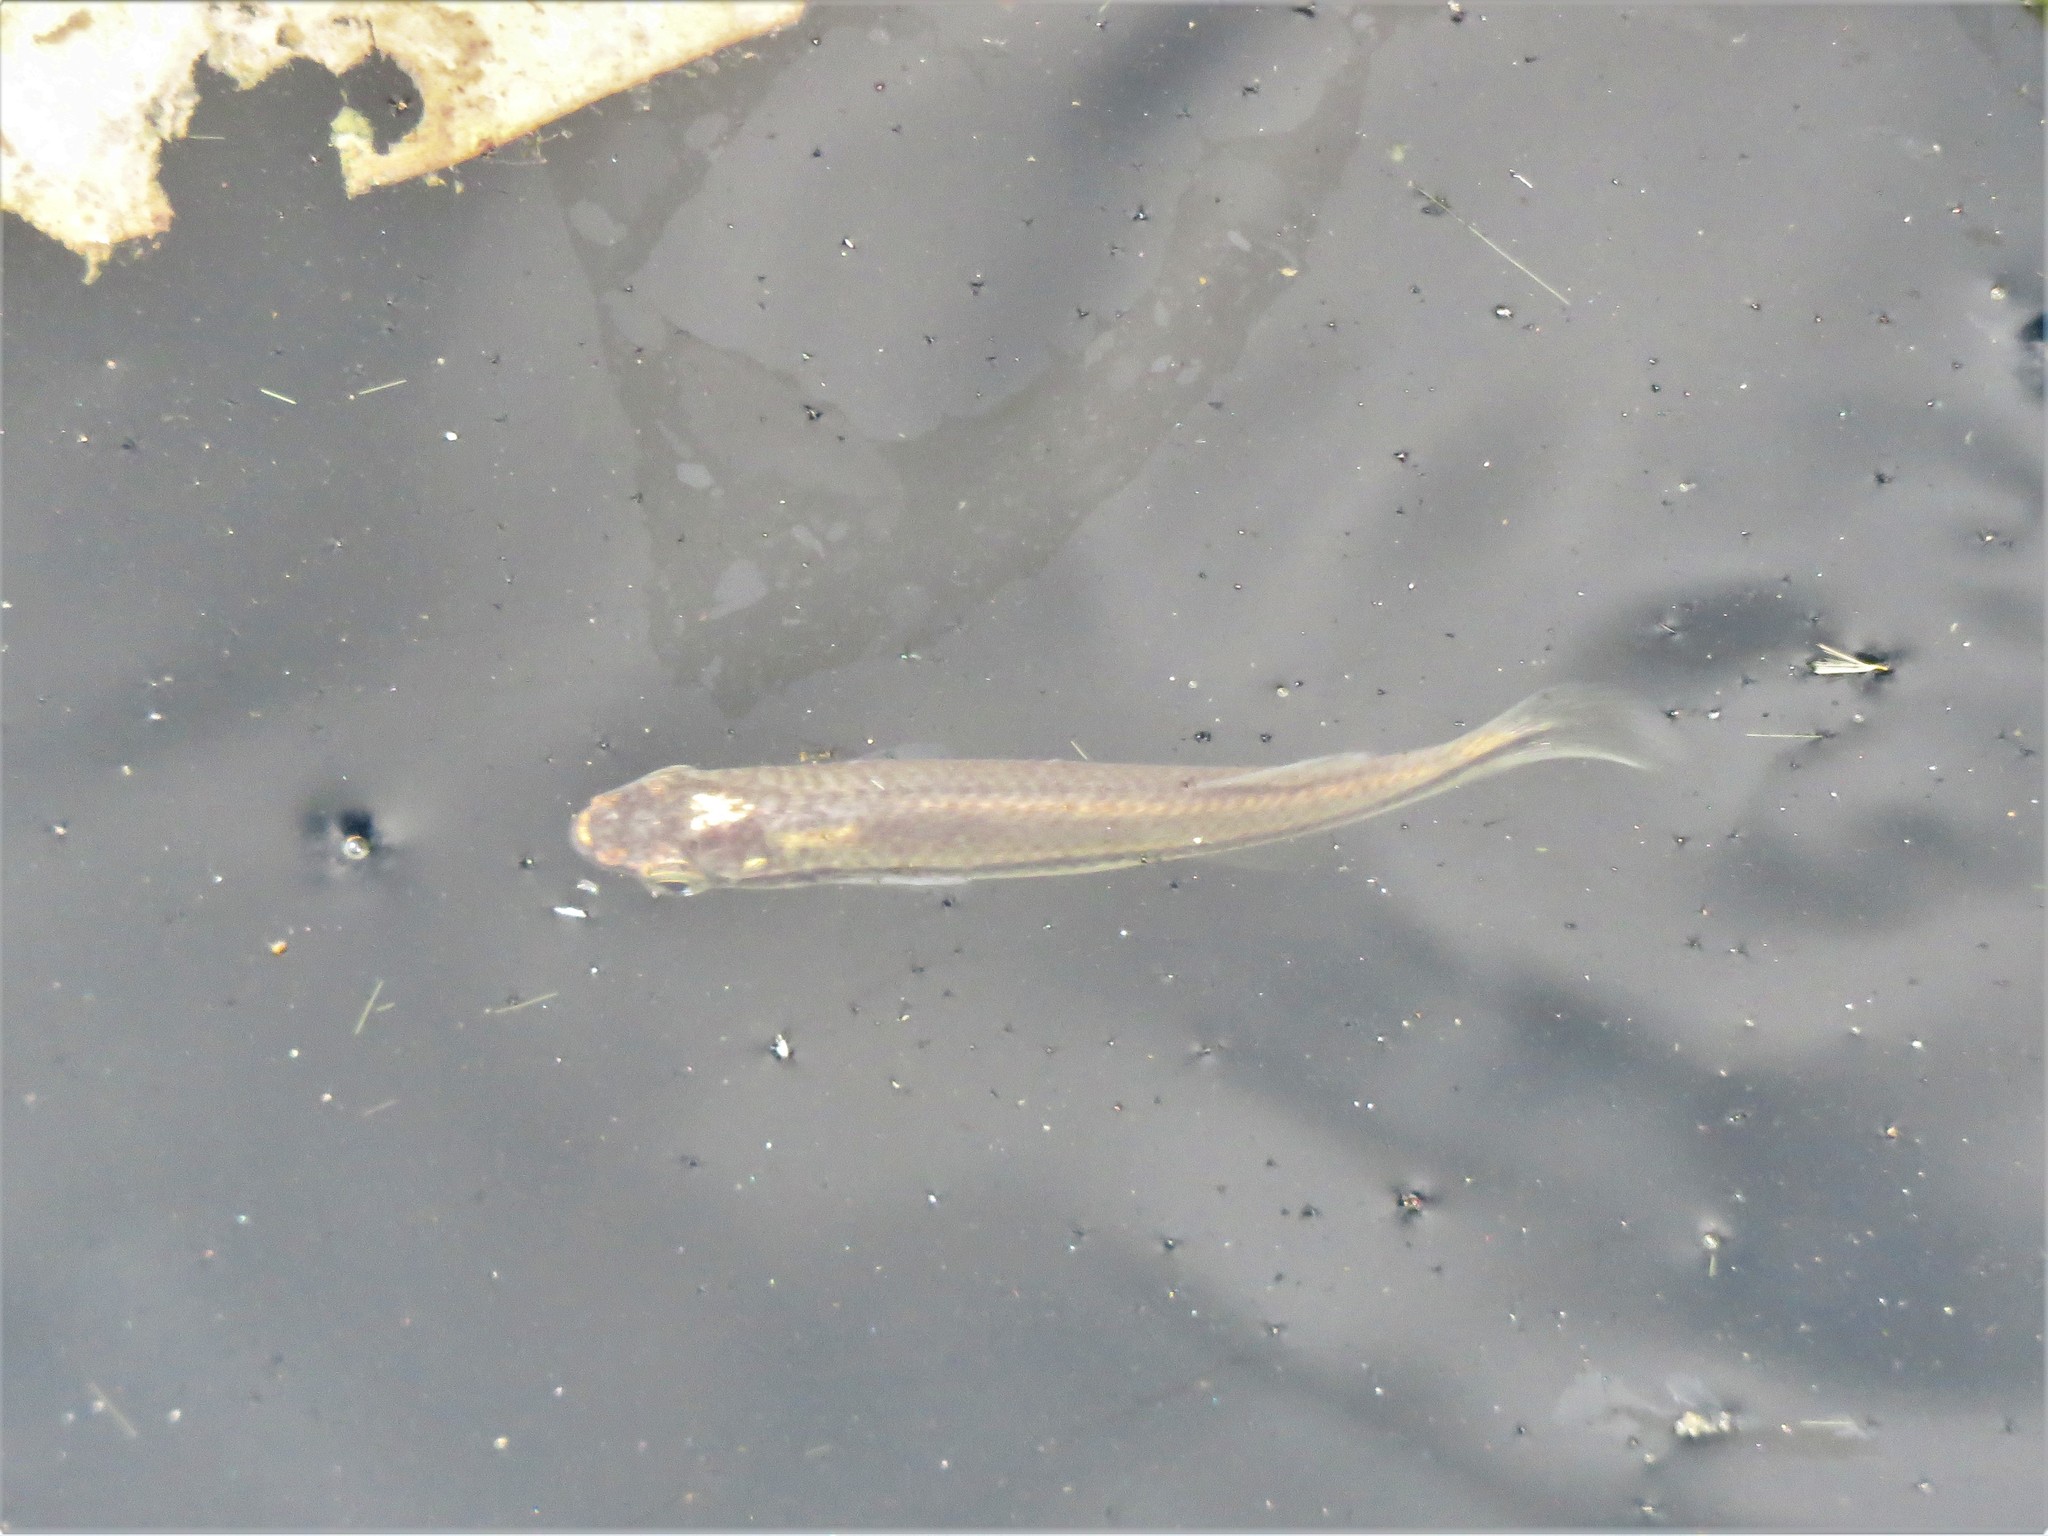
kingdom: Animalia
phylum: Chordata
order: Cyprinodontiformes
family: Fundulidae
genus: Fundulus
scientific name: Fundulus notatus
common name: Blackstripe topminnow
